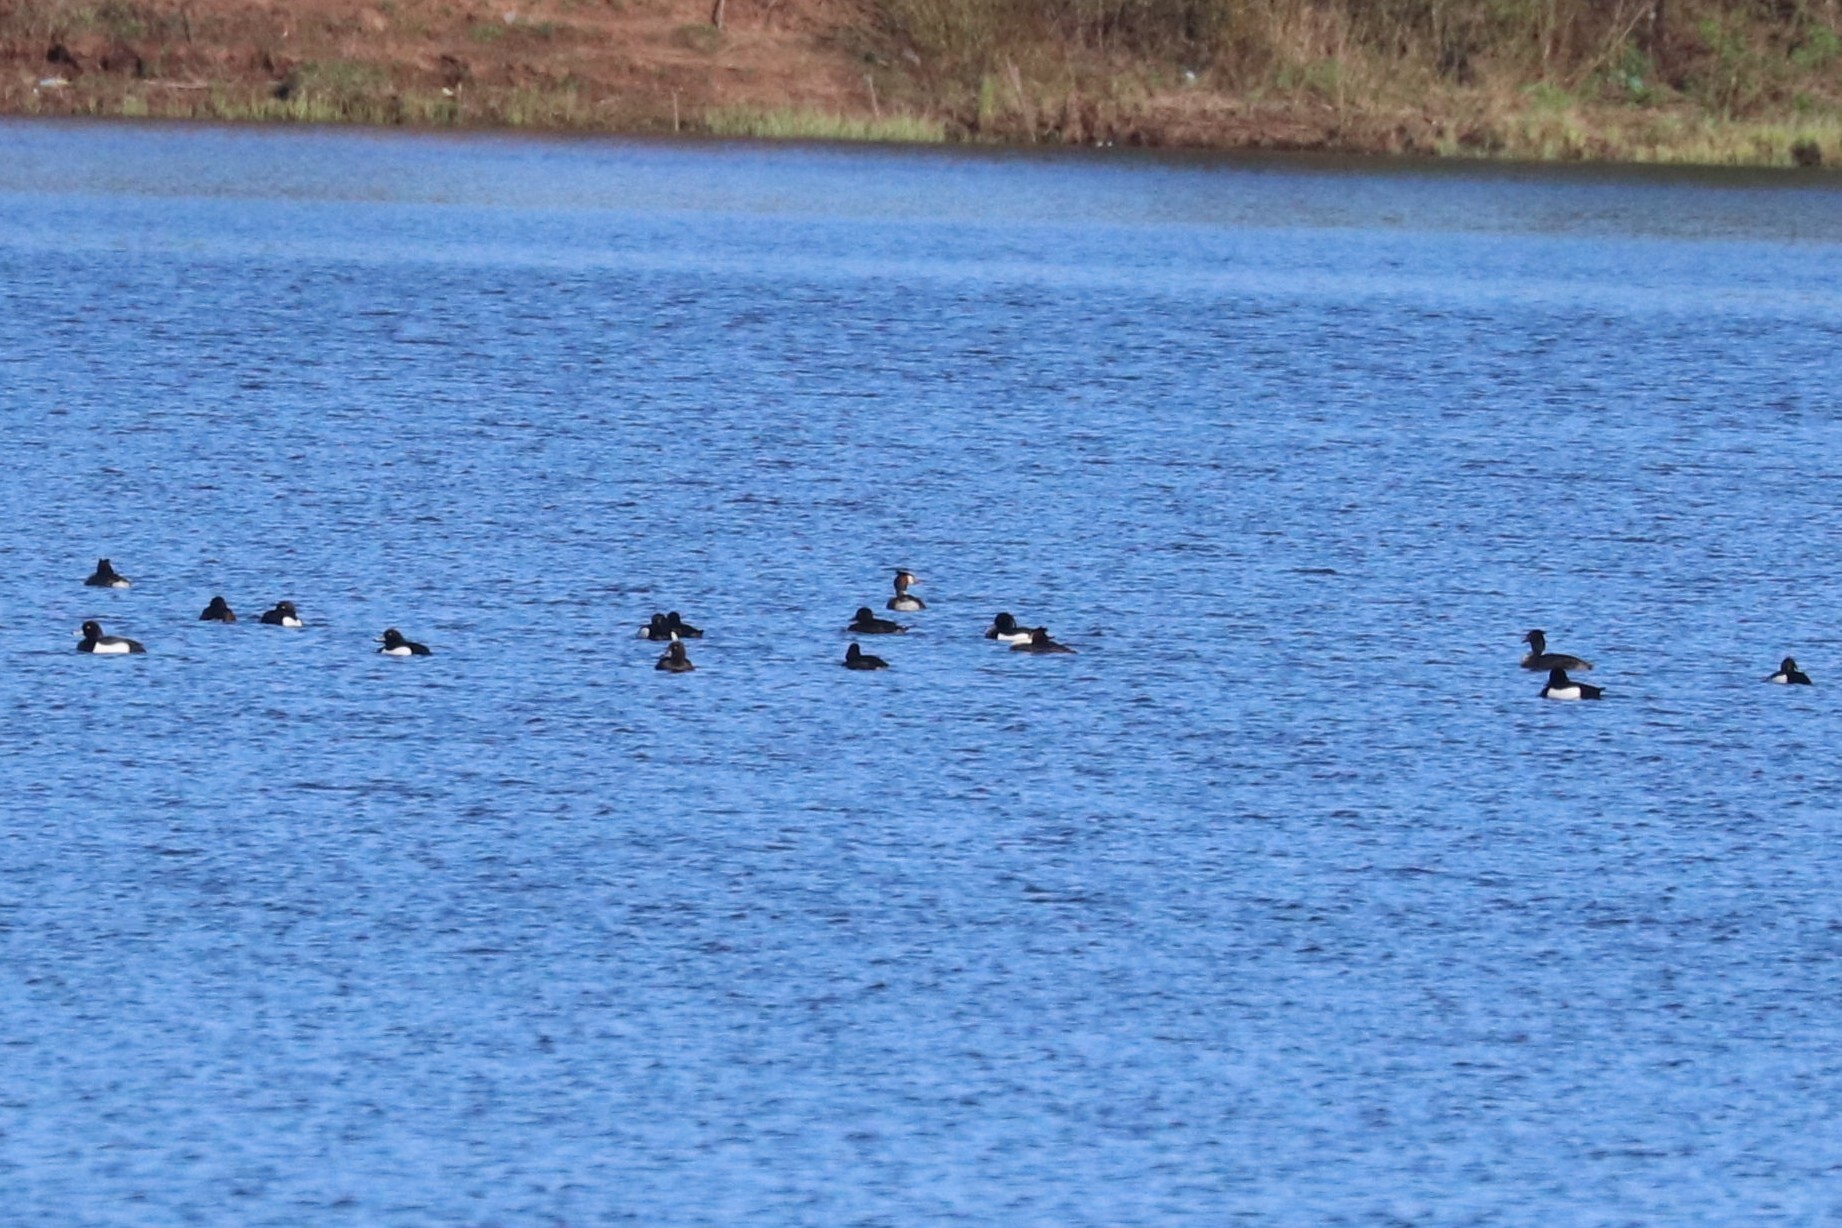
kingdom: Animalia
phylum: Chordata
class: Aves
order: Anseriformes
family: Anatidae
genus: Aythya
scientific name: Aythya fuligula
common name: Tufted duck
